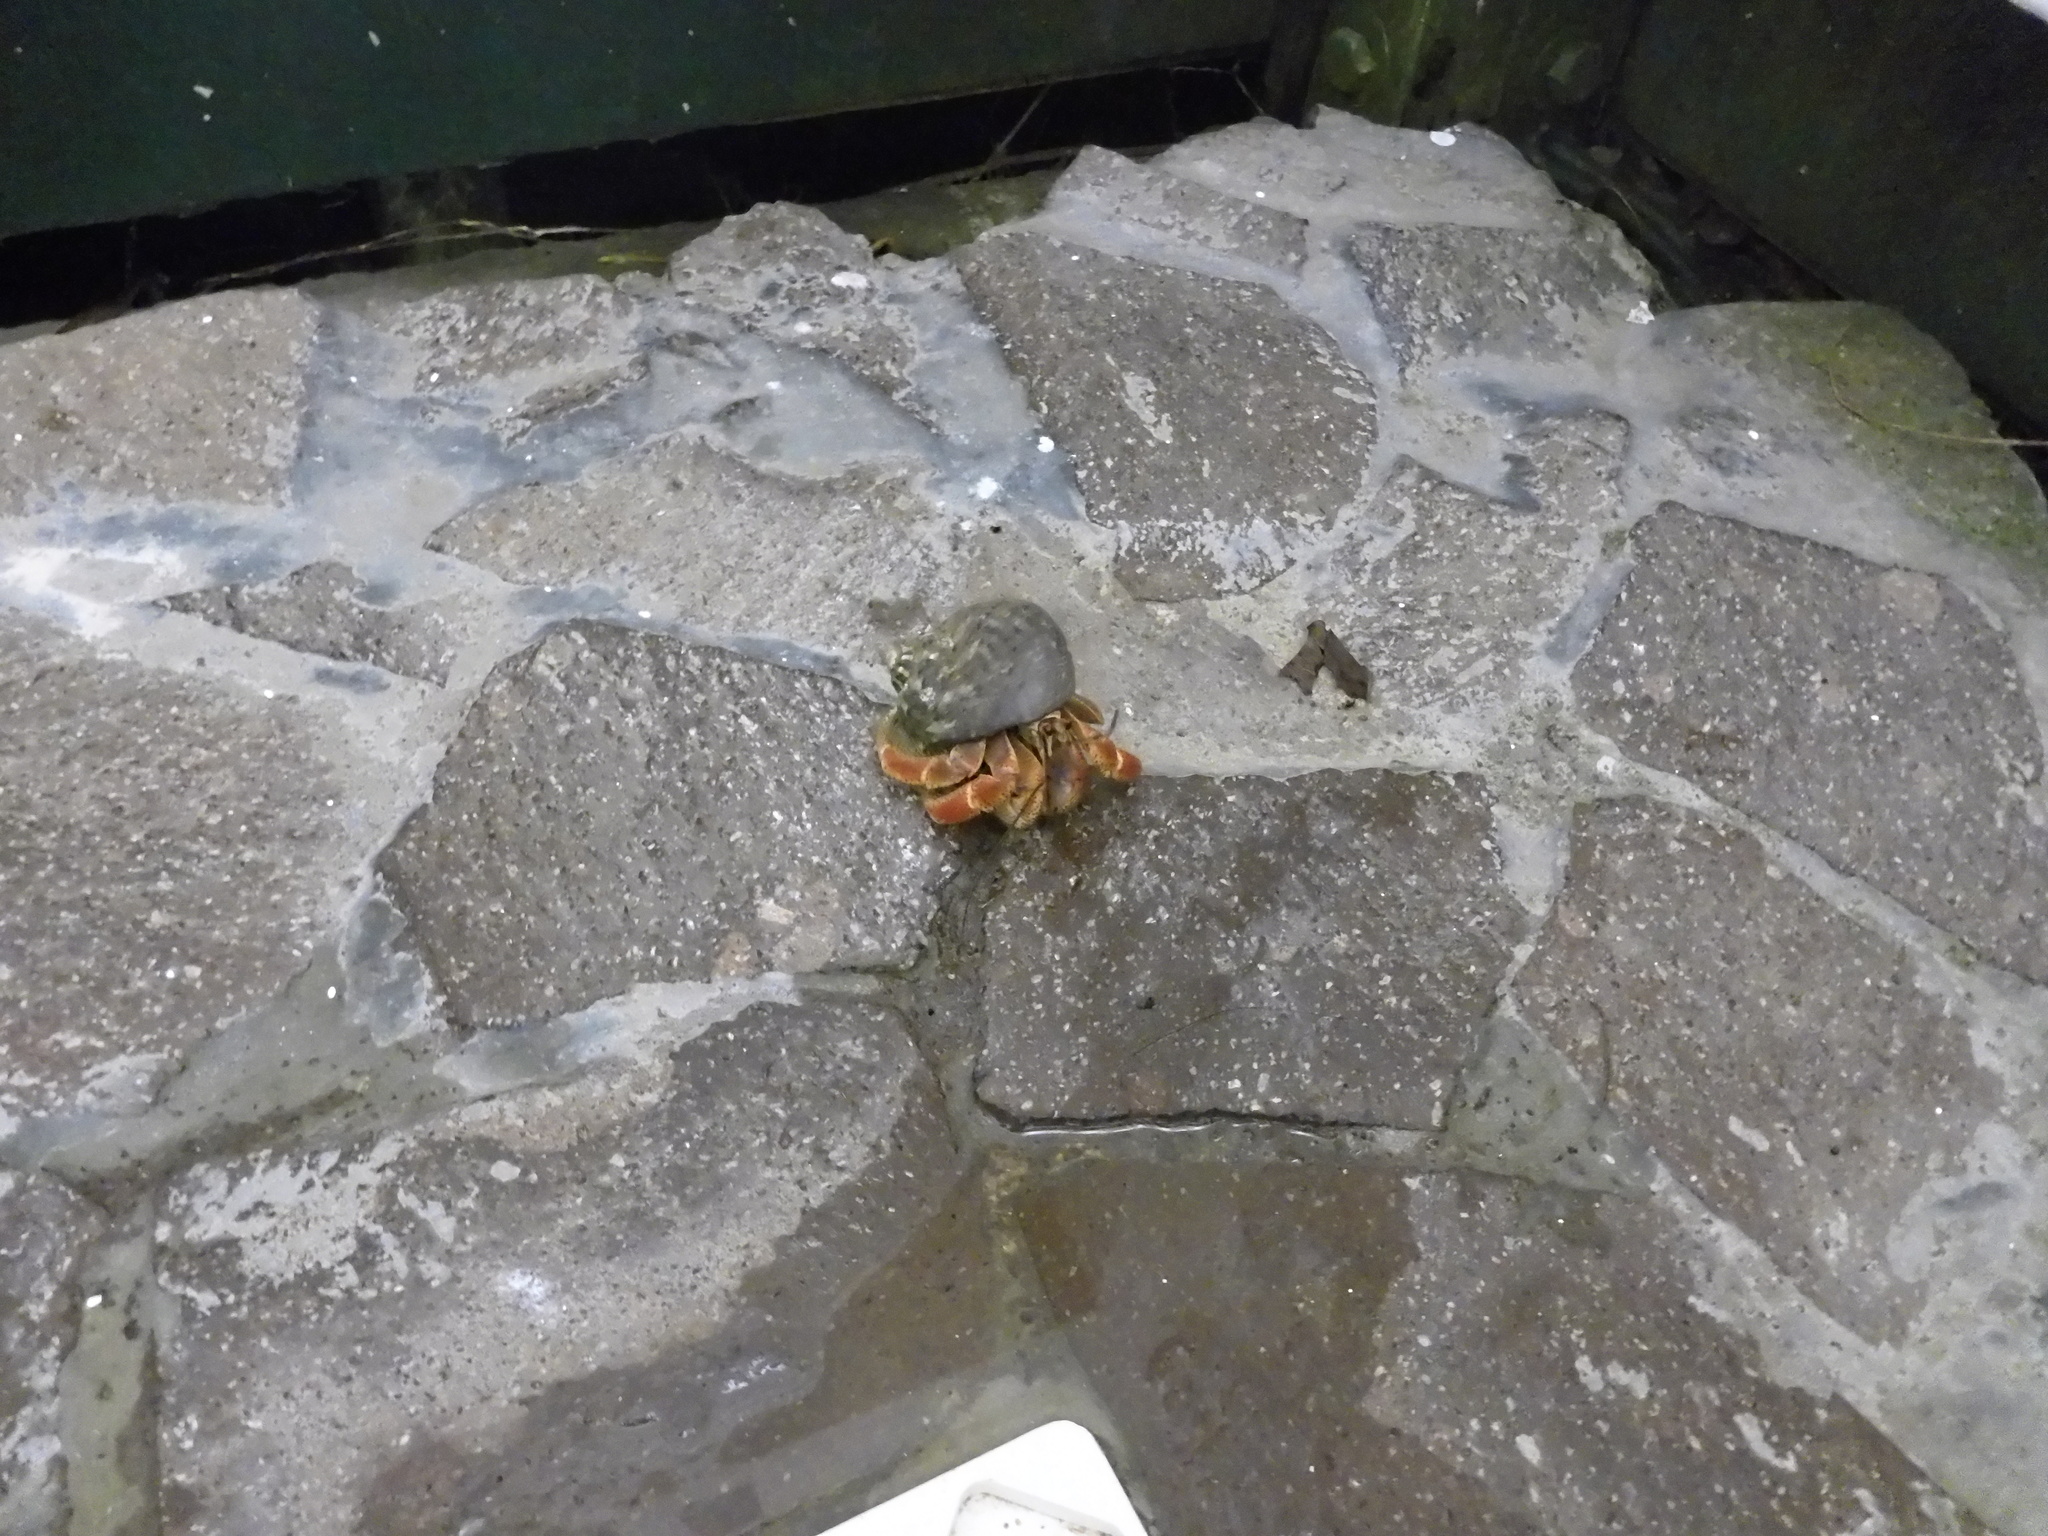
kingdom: Animalia
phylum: Arthropoda
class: Malacostraca
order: Decapoda
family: Coenobitidae
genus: Coenobita
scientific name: Coenobita clypeatus
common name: Caribbean hermit crab
